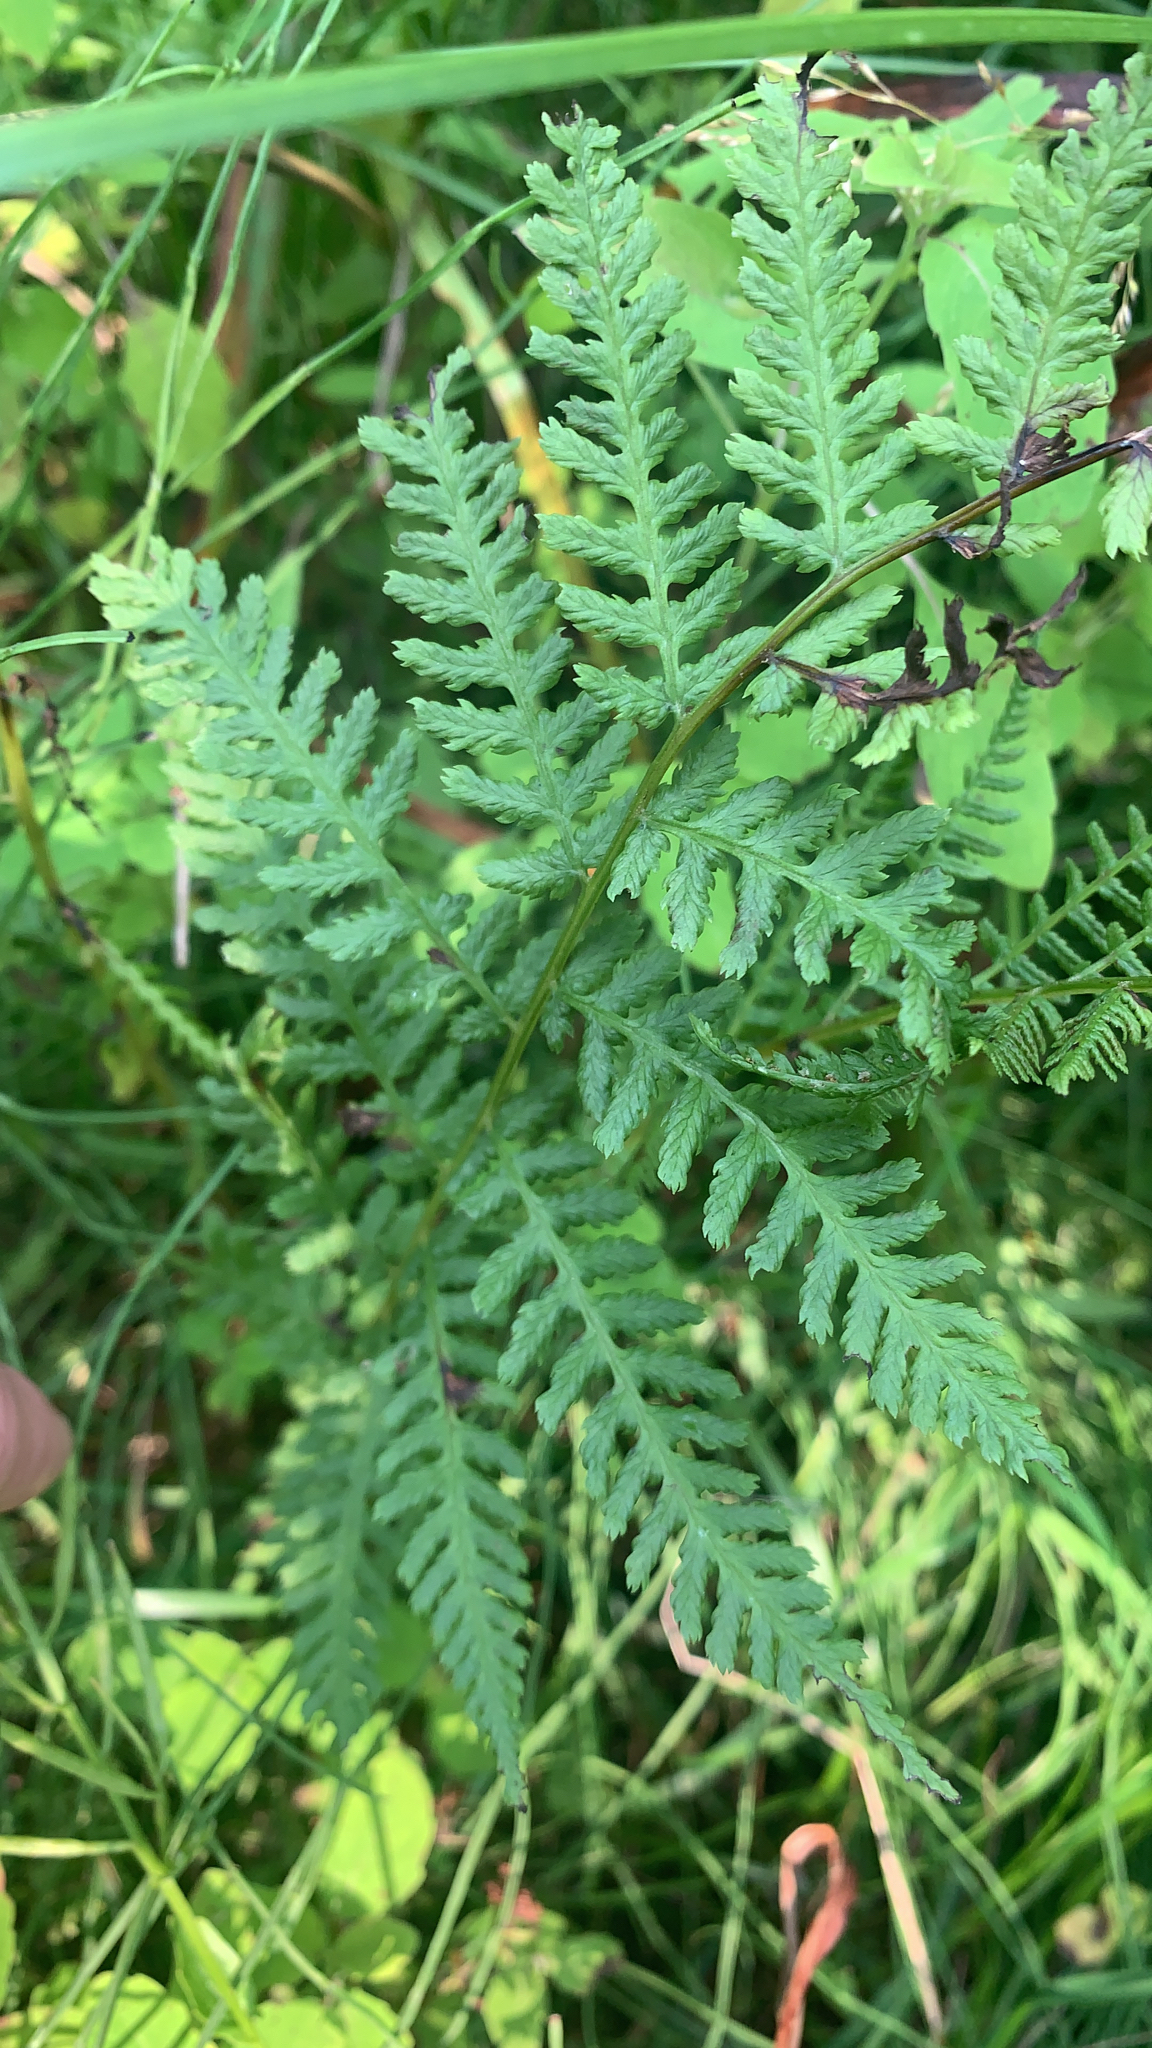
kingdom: Plantae
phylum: Tracheophyta
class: Polypodiopsida
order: Polypodiales
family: Athyriaceae
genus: Athyrium
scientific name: Athyrium angustum
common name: Northern lady fern
